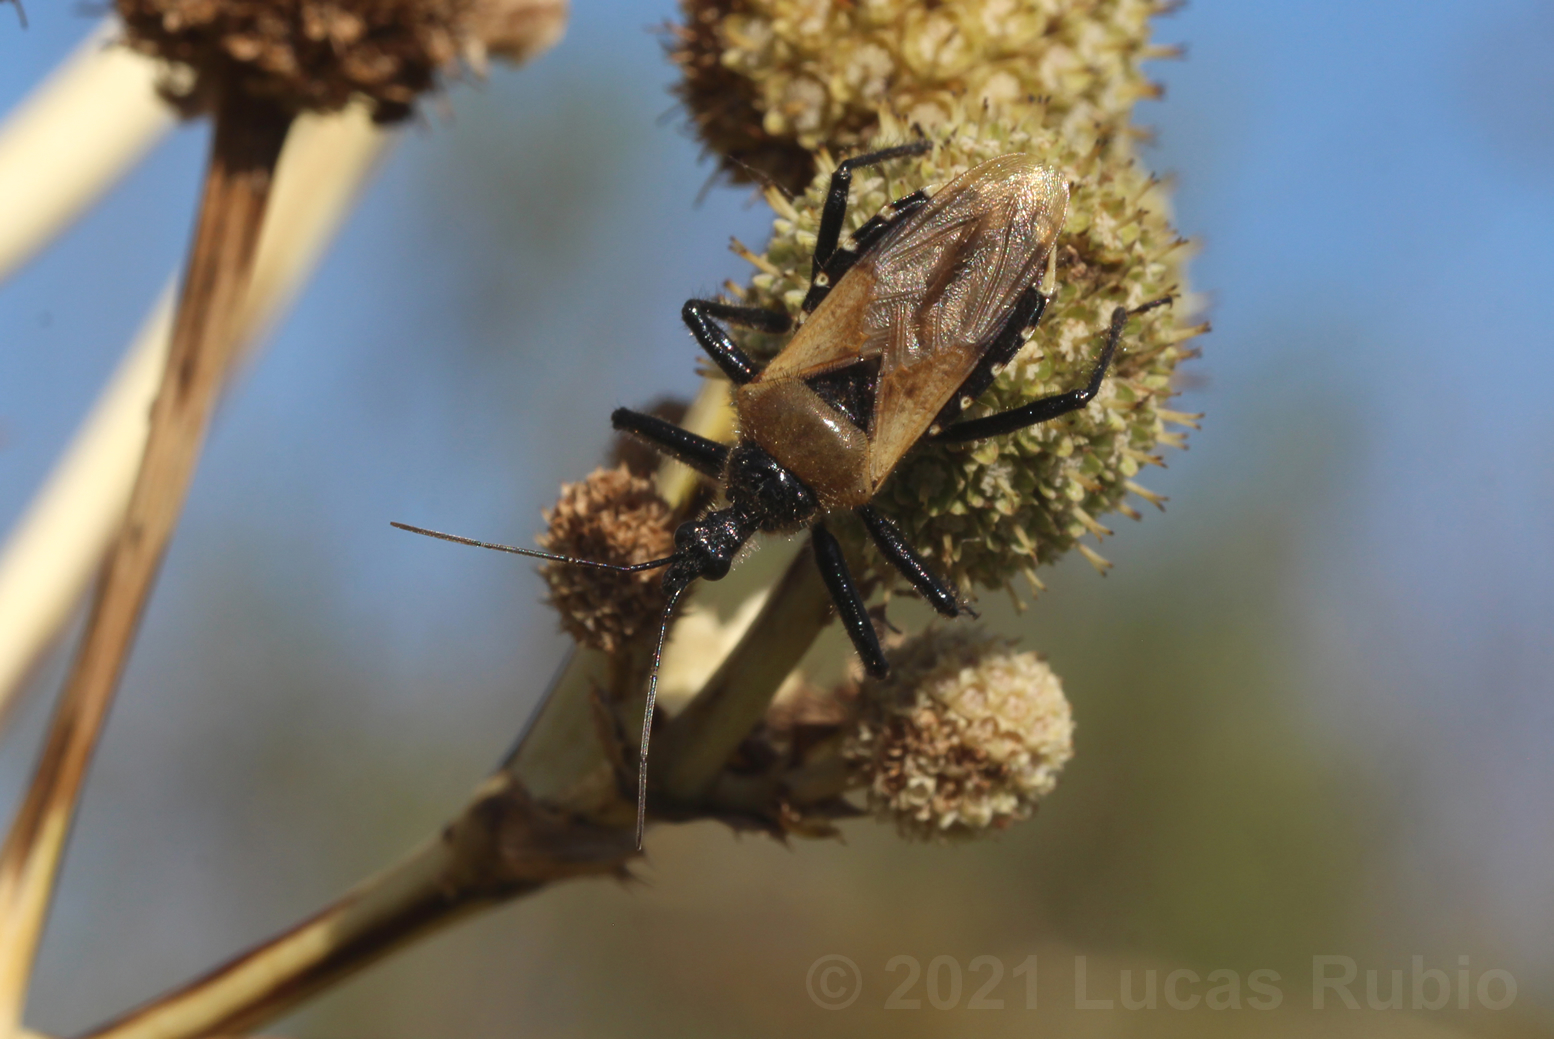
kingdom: Animalia
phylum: Arthropoda
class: Insecta
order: Hemiptera
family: Reduviidae
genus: Apiomerus
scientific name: Apiomerus barbiellinii
